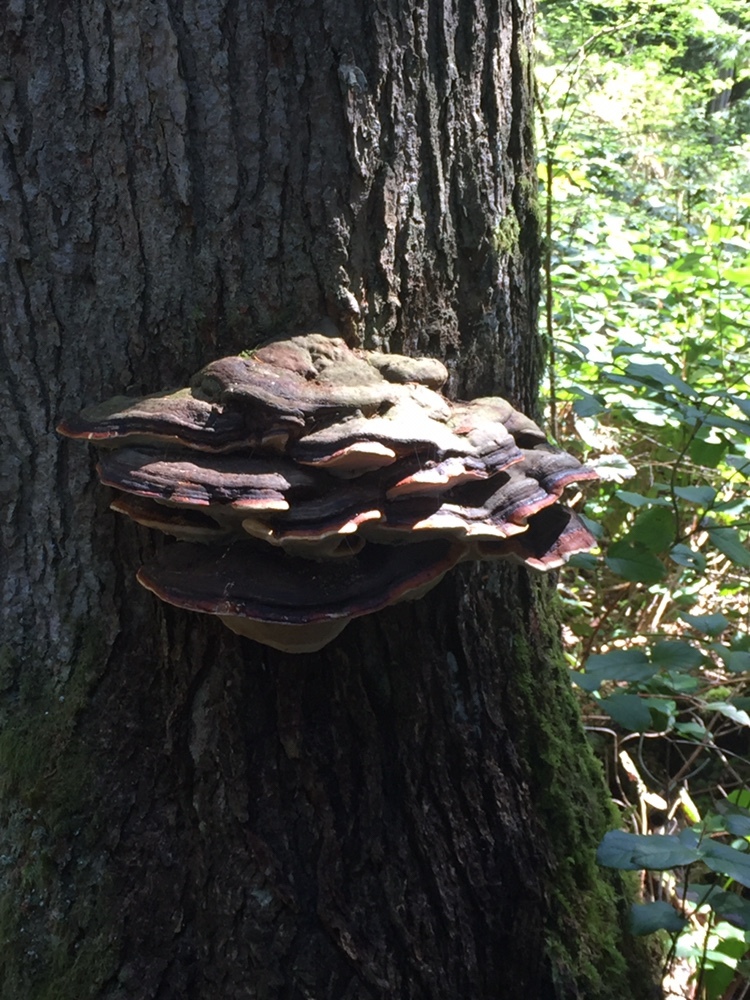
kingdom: Fungi
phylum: Basidiomycota
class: Agaricomycetes
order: Polyporales
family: Fomitopsidaceae
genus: Fomitopsis
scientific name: Fomitopsis mounceae
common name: Northern red belt
